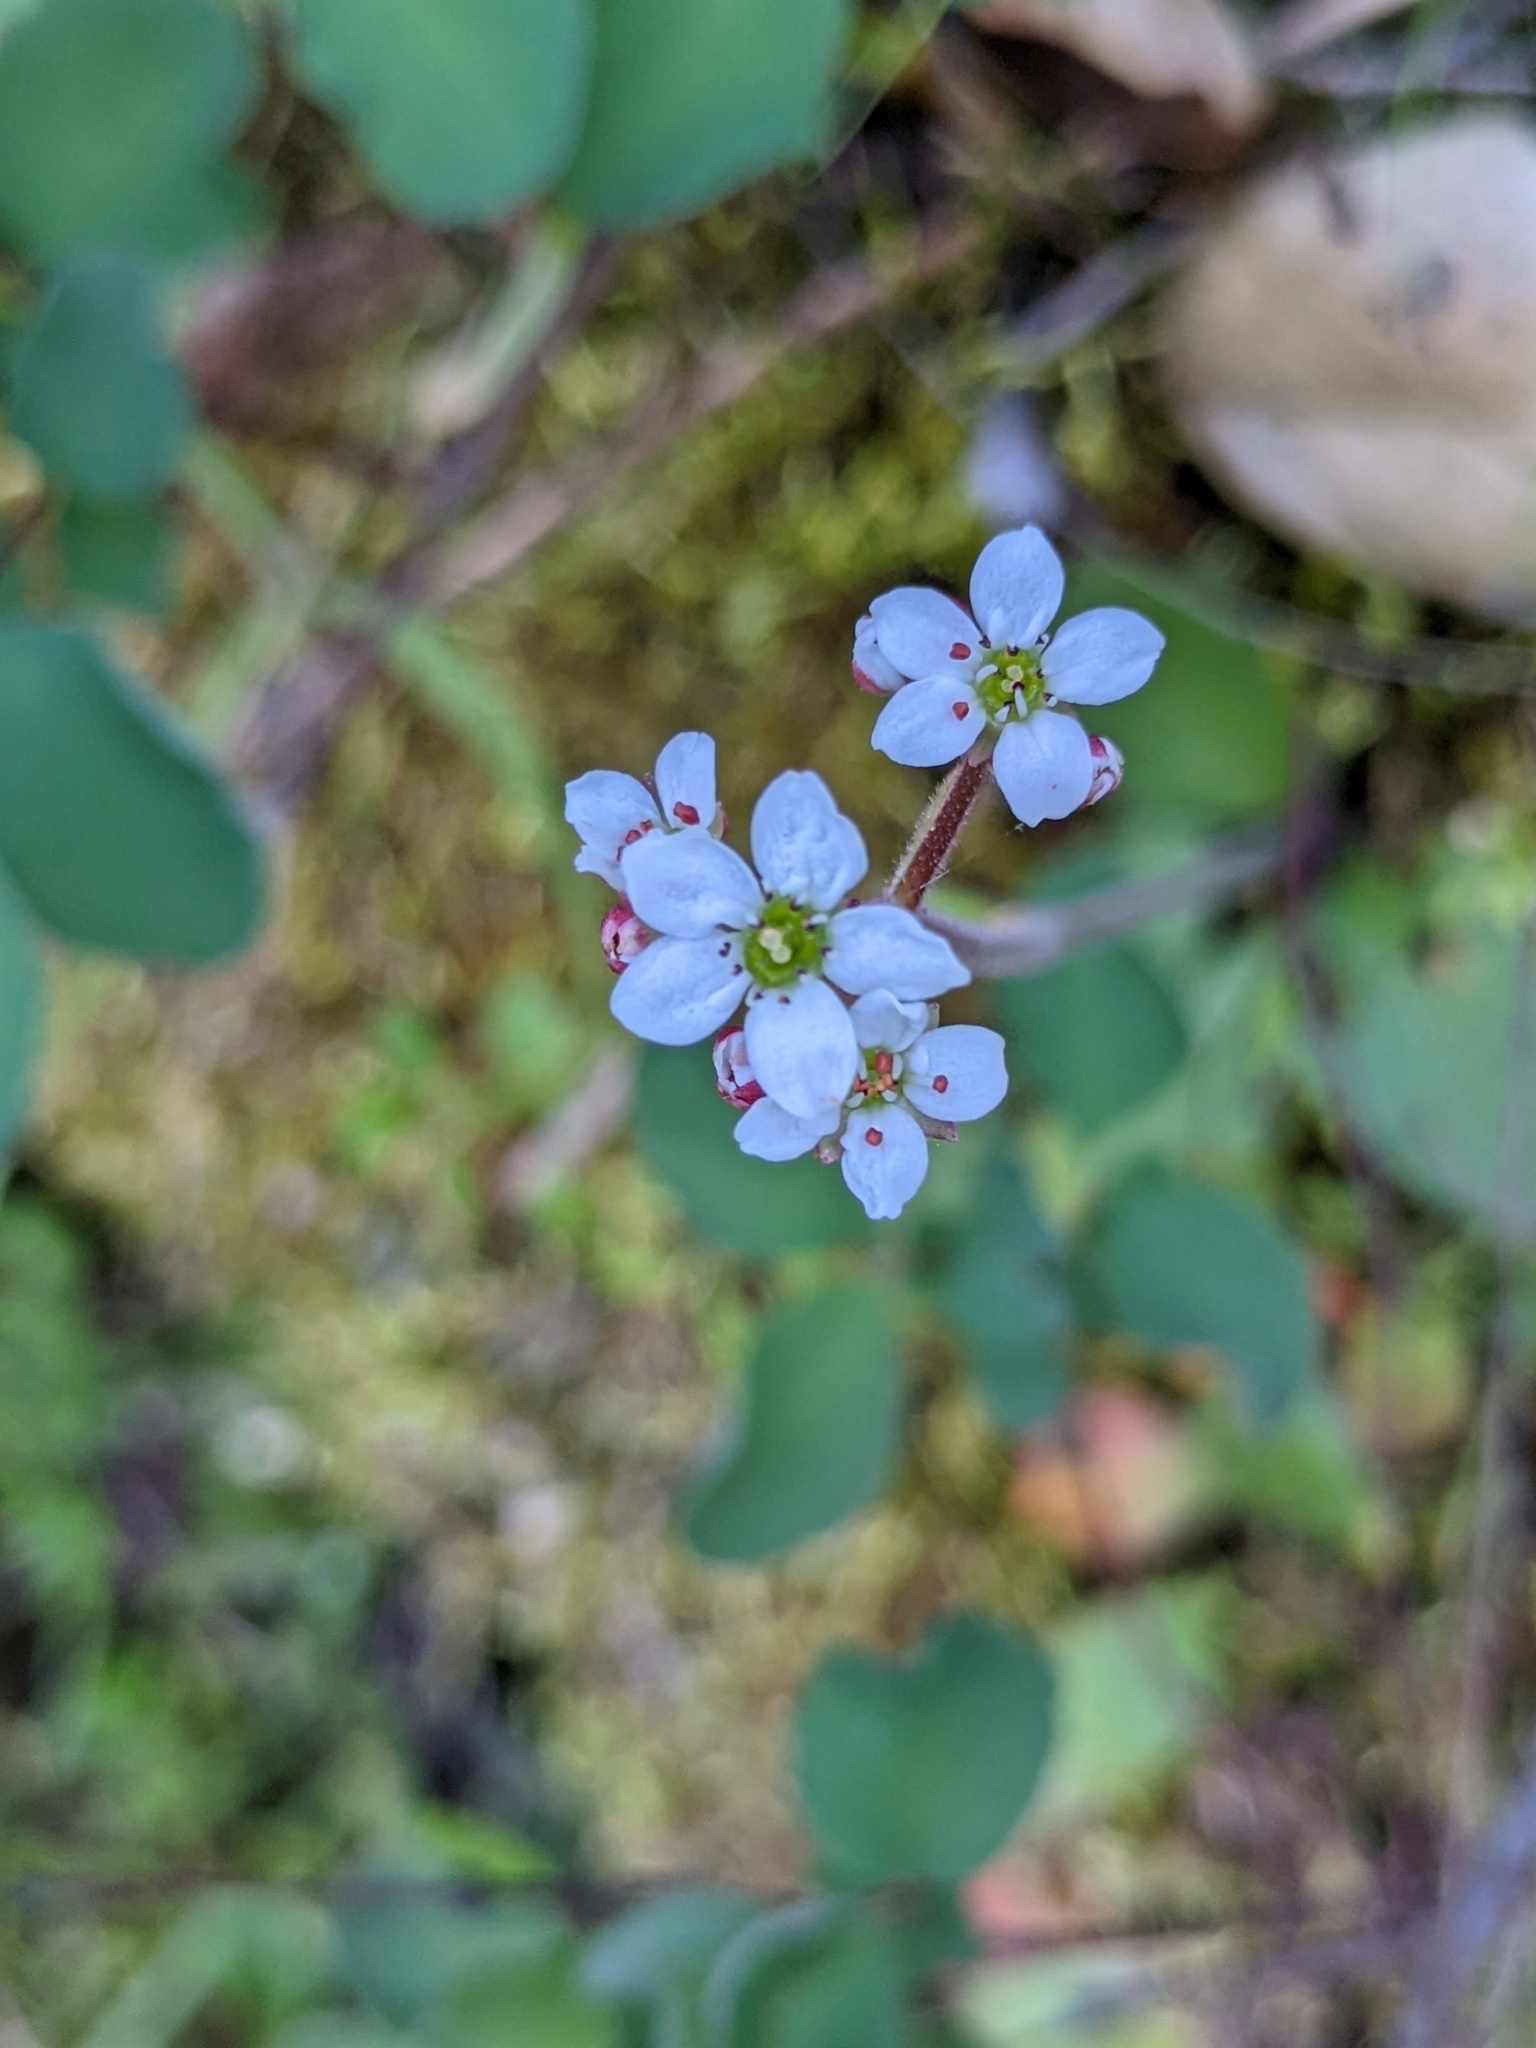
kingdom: Plantae
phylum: Tracheophyta
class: Magnoliopsida
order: Saxifragales
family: Saxifragaceae
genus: Micranthes
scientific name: Micranthes californica
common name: California saxifrage
